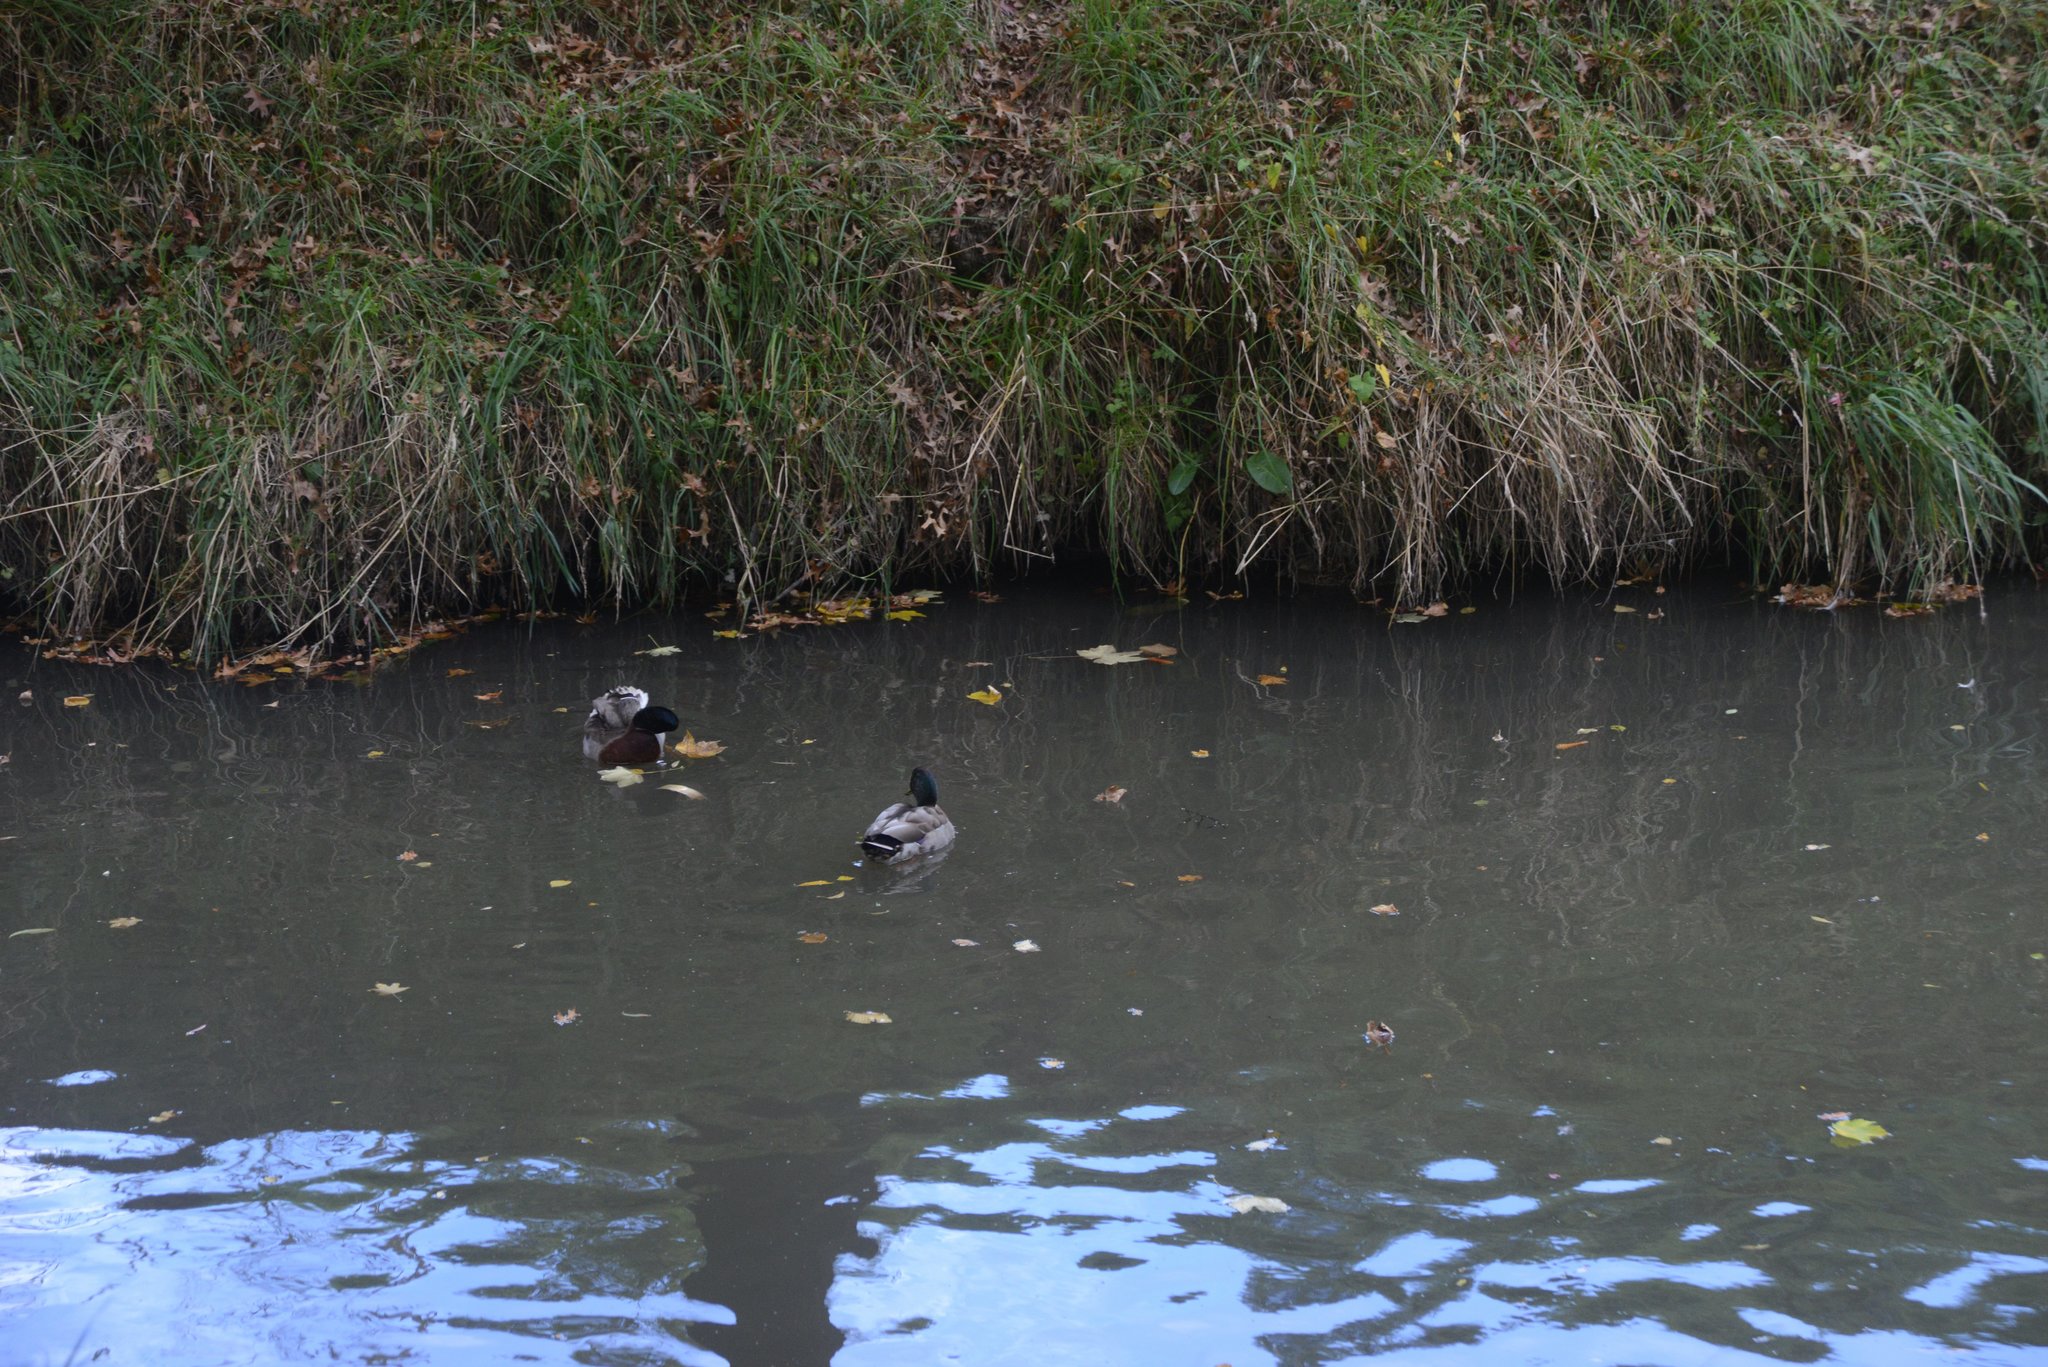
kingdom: Animalia
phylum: Chordata
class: Aves
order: Anseriformes
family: Anatidae
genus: Anas
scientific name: Anas platyrhynchos
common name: Mallard
